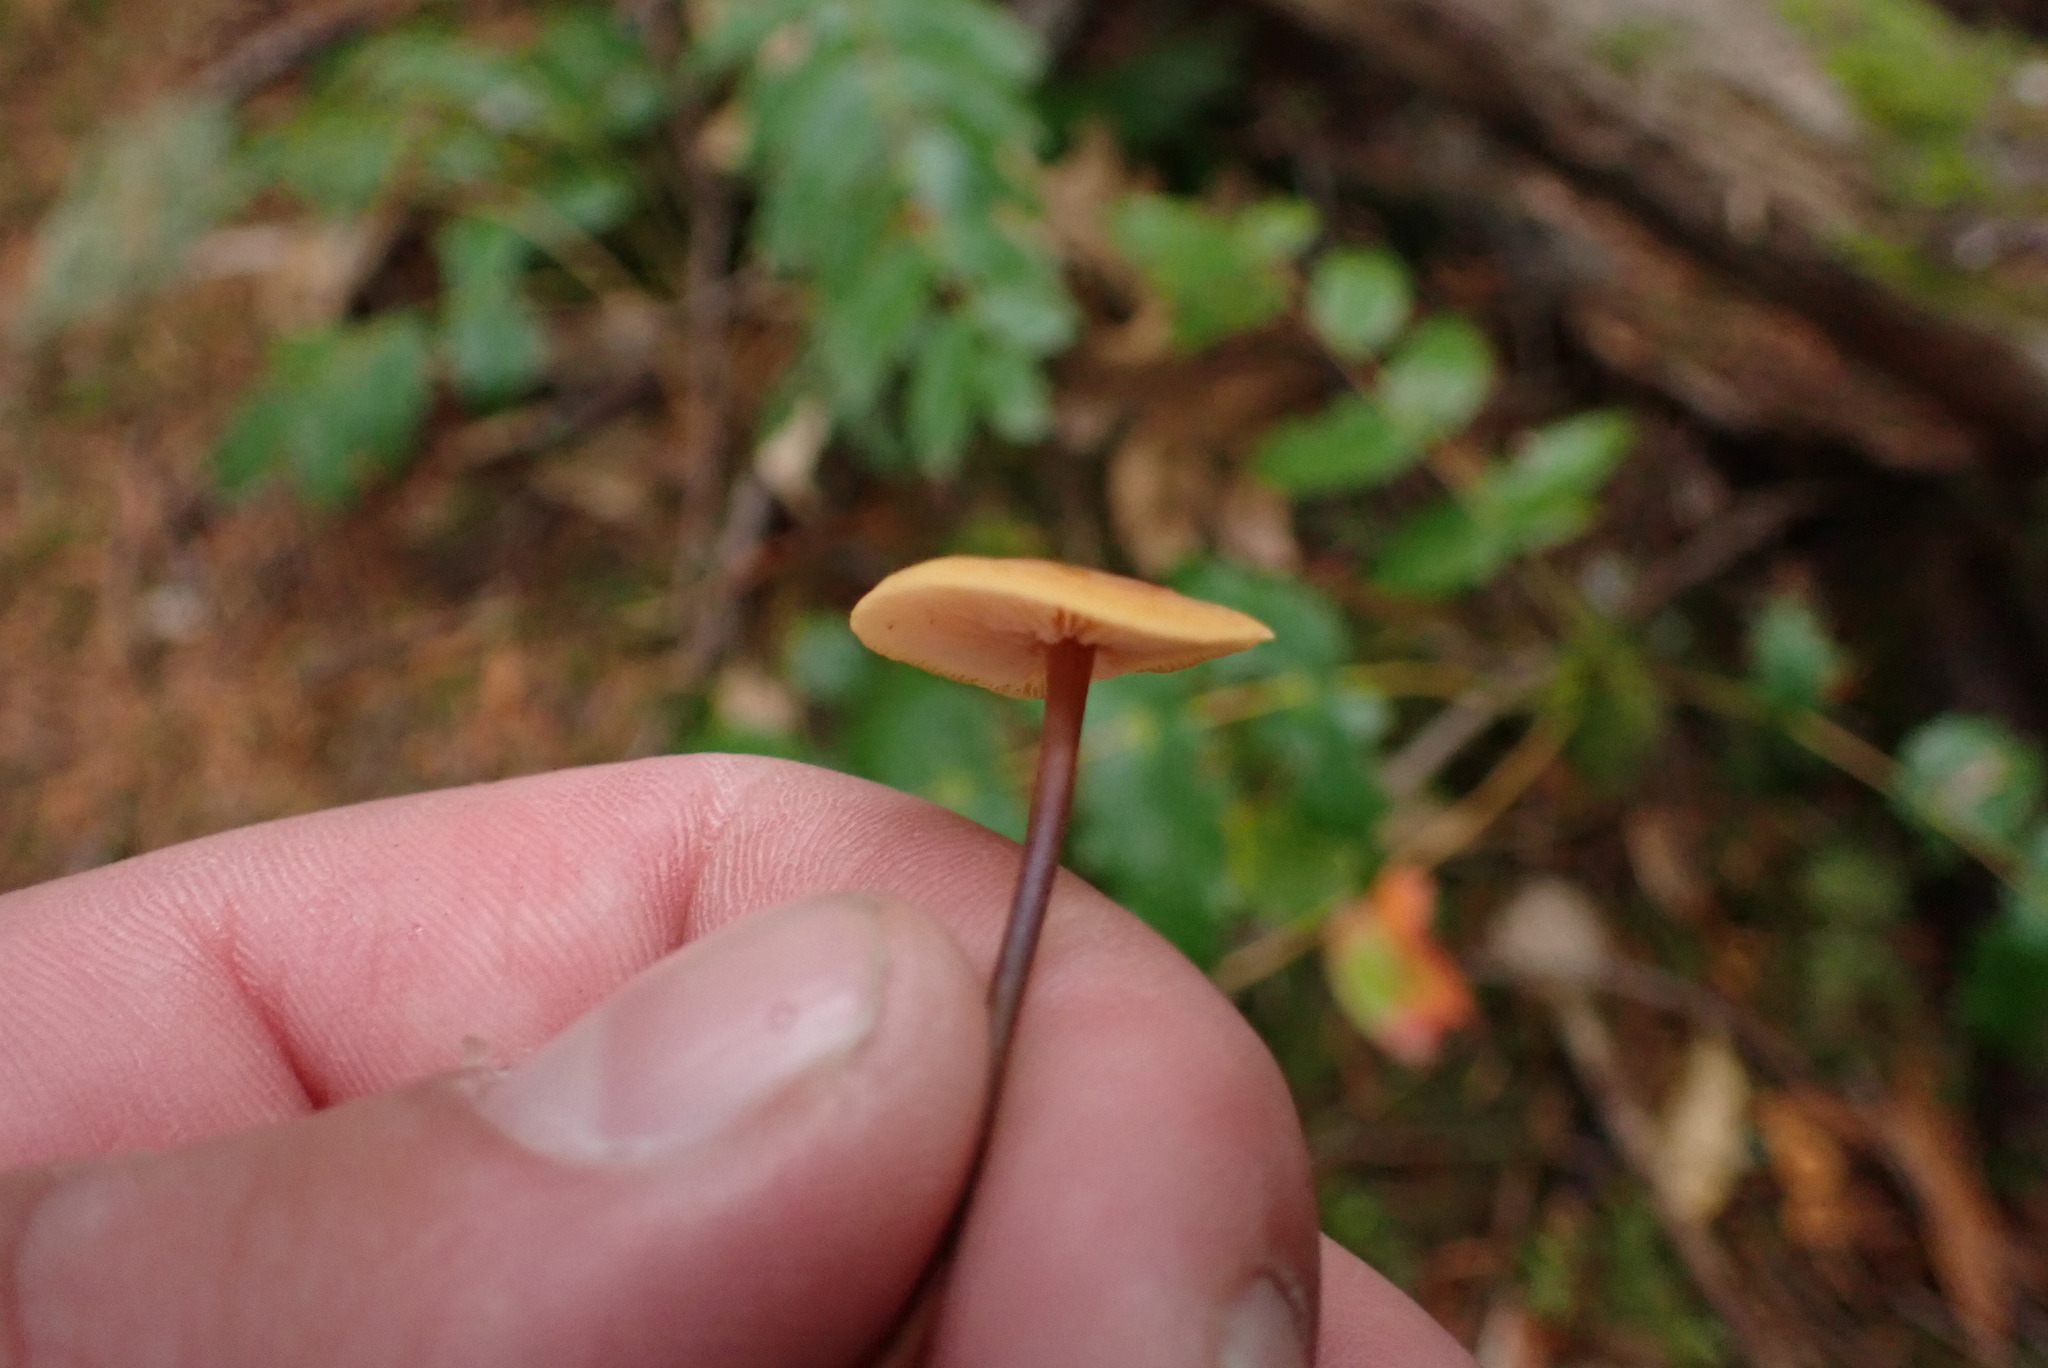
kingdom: Fungi
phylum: Basidiomycota
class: Agaricomycetes
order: Agaricales
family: Mycenaceae
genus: Xeromphalina
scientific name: Xeromphalina fulvipes
